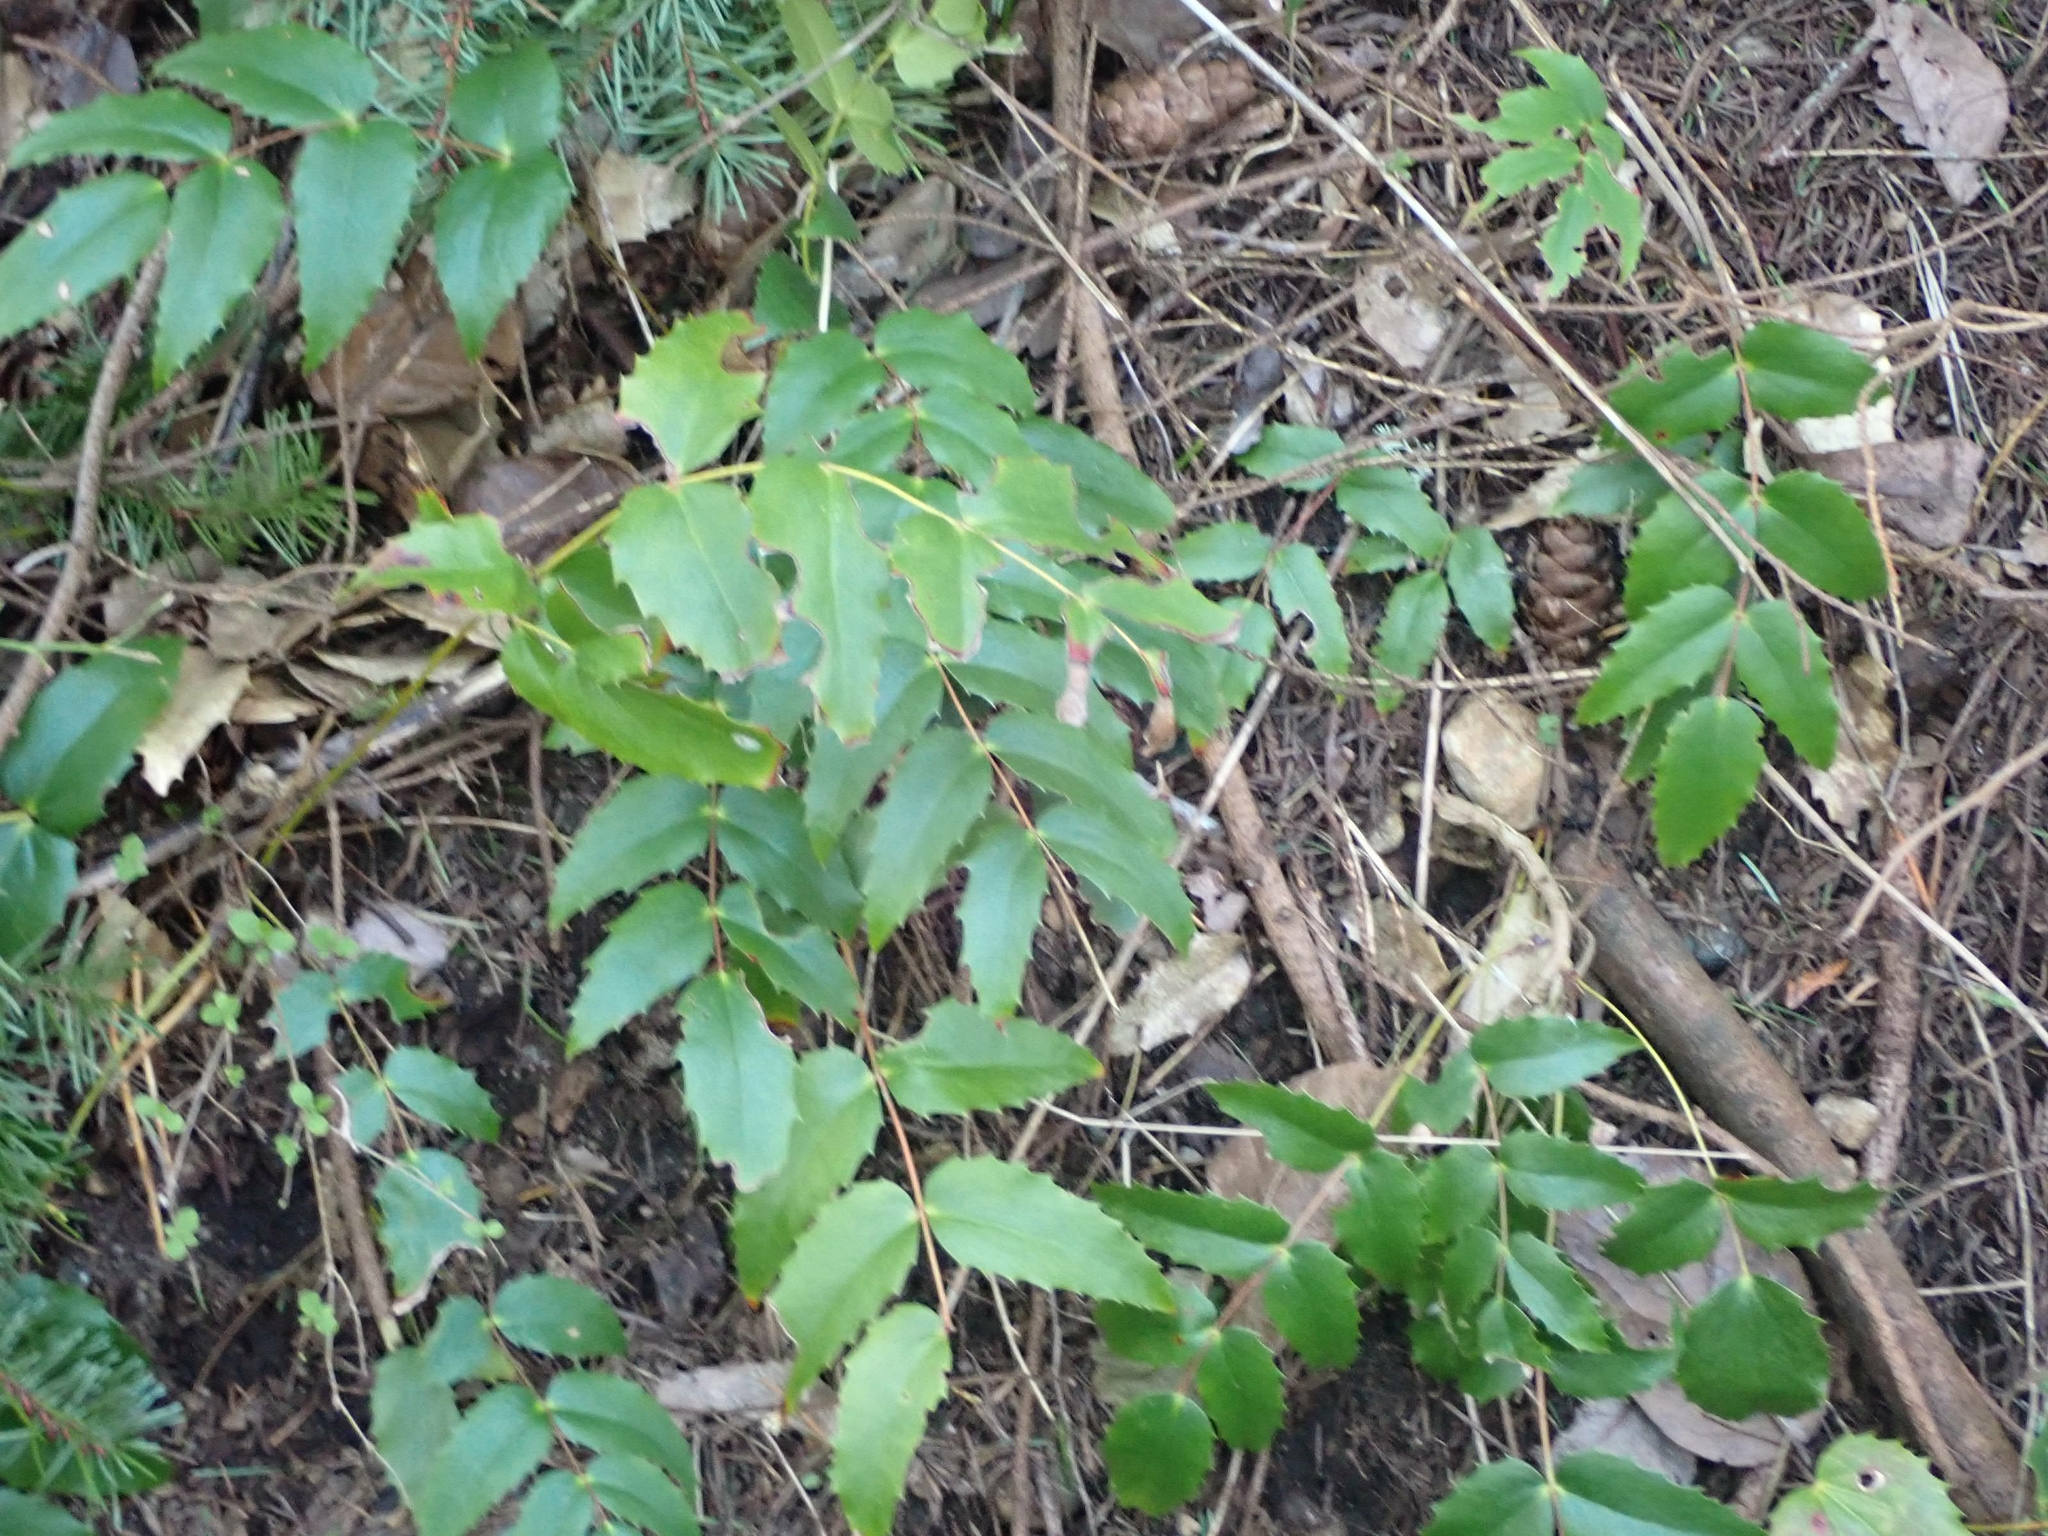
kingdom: Plantae
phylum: Tracheophyta
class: Magnoliopsida
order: Ranunculales
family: Berberidaceae
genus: Mahonia
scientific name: Mahonia nervosa
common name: Cascade oregon-grape
